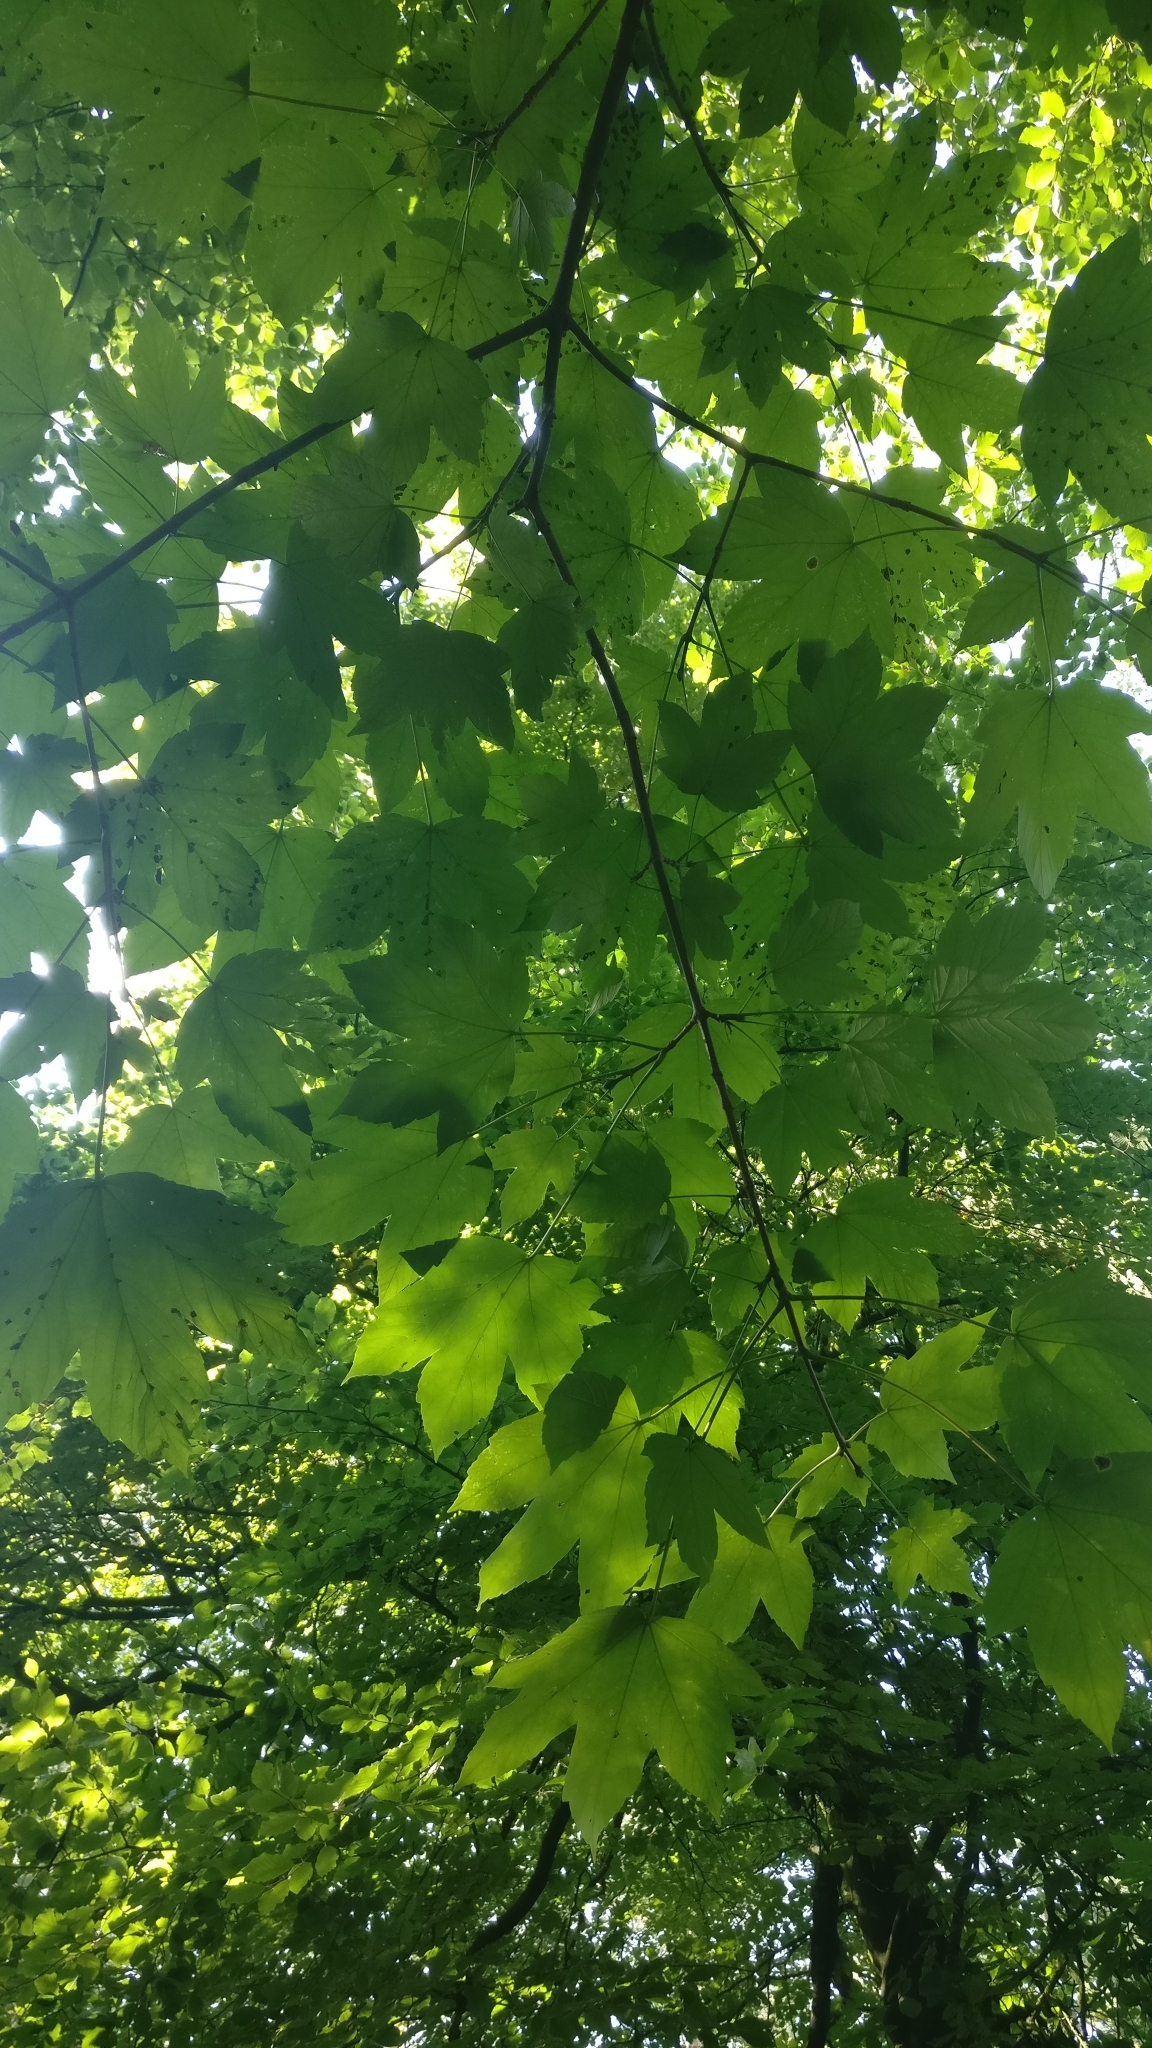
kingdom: Plantae
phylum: Tracheophyta
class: Magnoliopsida
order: Sapindales
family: Sapindaceae
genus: Acer
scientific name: Acer pseudoplatanus
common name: Sycamore
